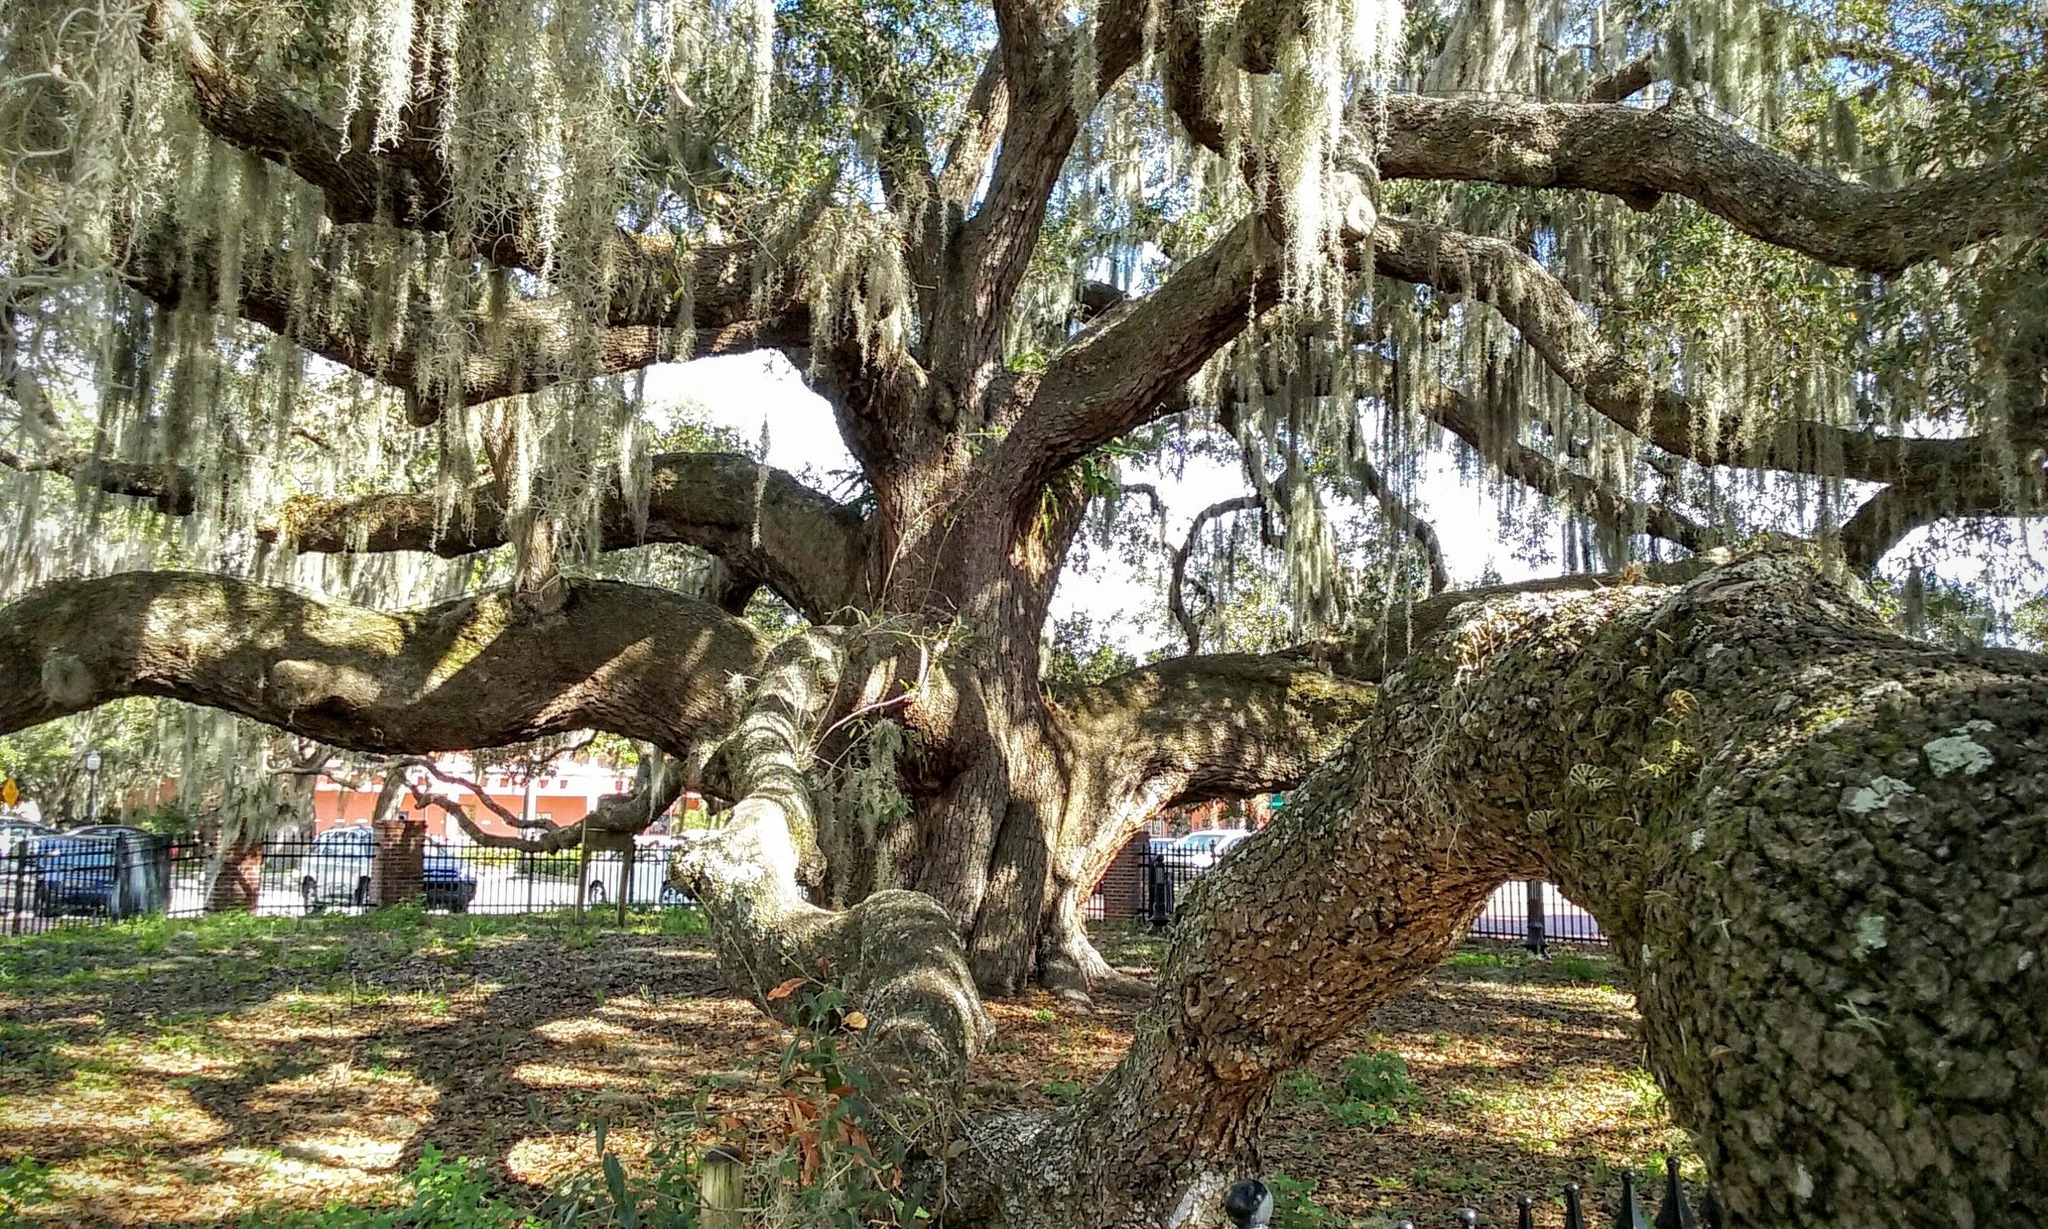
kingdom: Plantae
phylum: Tracheophyta
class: Magnoliopsida
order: Fagales
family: Fagaceae
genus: Quercus
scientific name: Quercus virginiana
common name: Southern live oak
